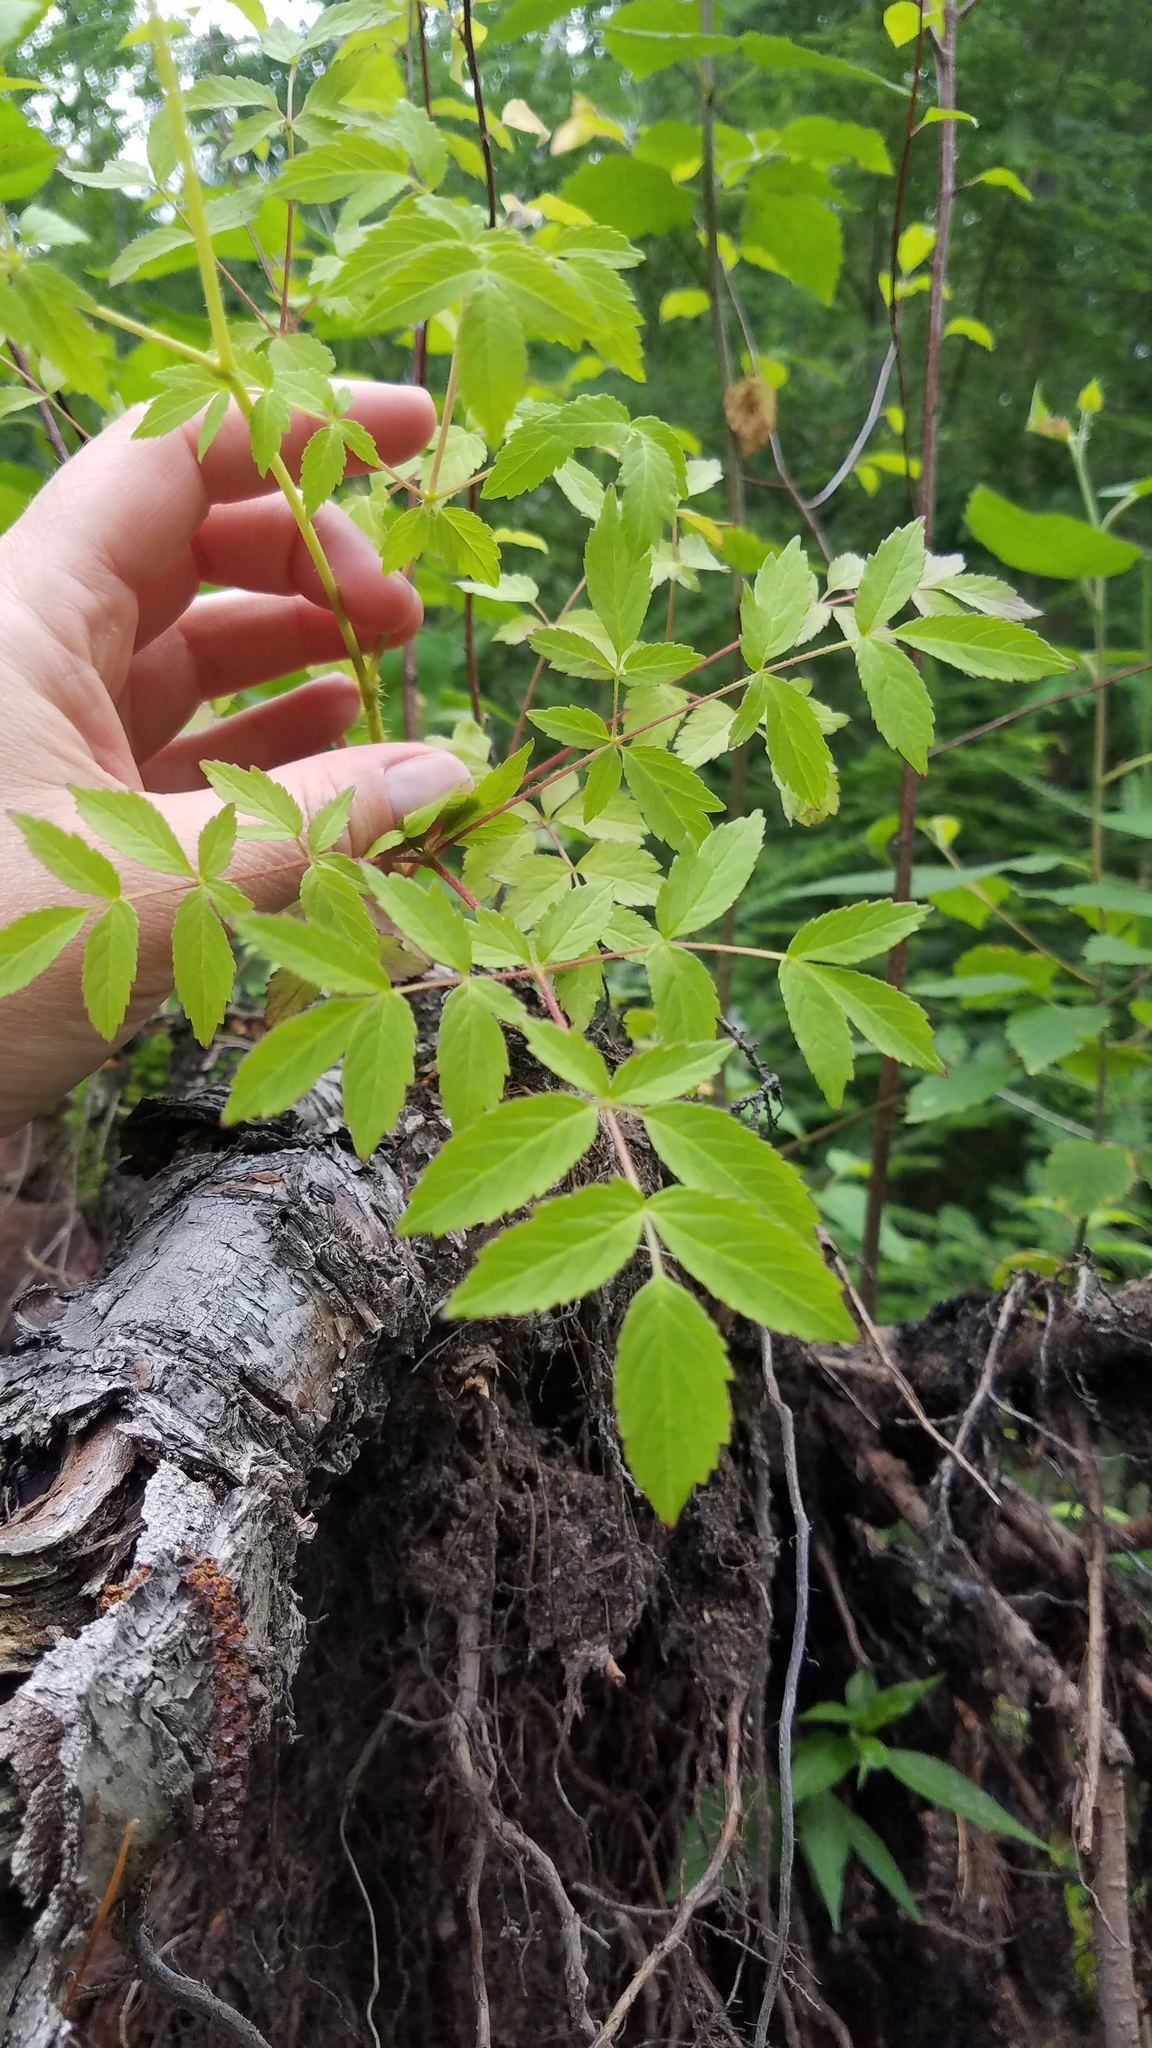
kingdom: Plantae
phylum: Tracheophyta
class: Magnoliopsida
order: Apiales
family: Araliaceae
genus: Aralia
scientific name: Aralia hispida
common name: Bristly sarsaparilla
